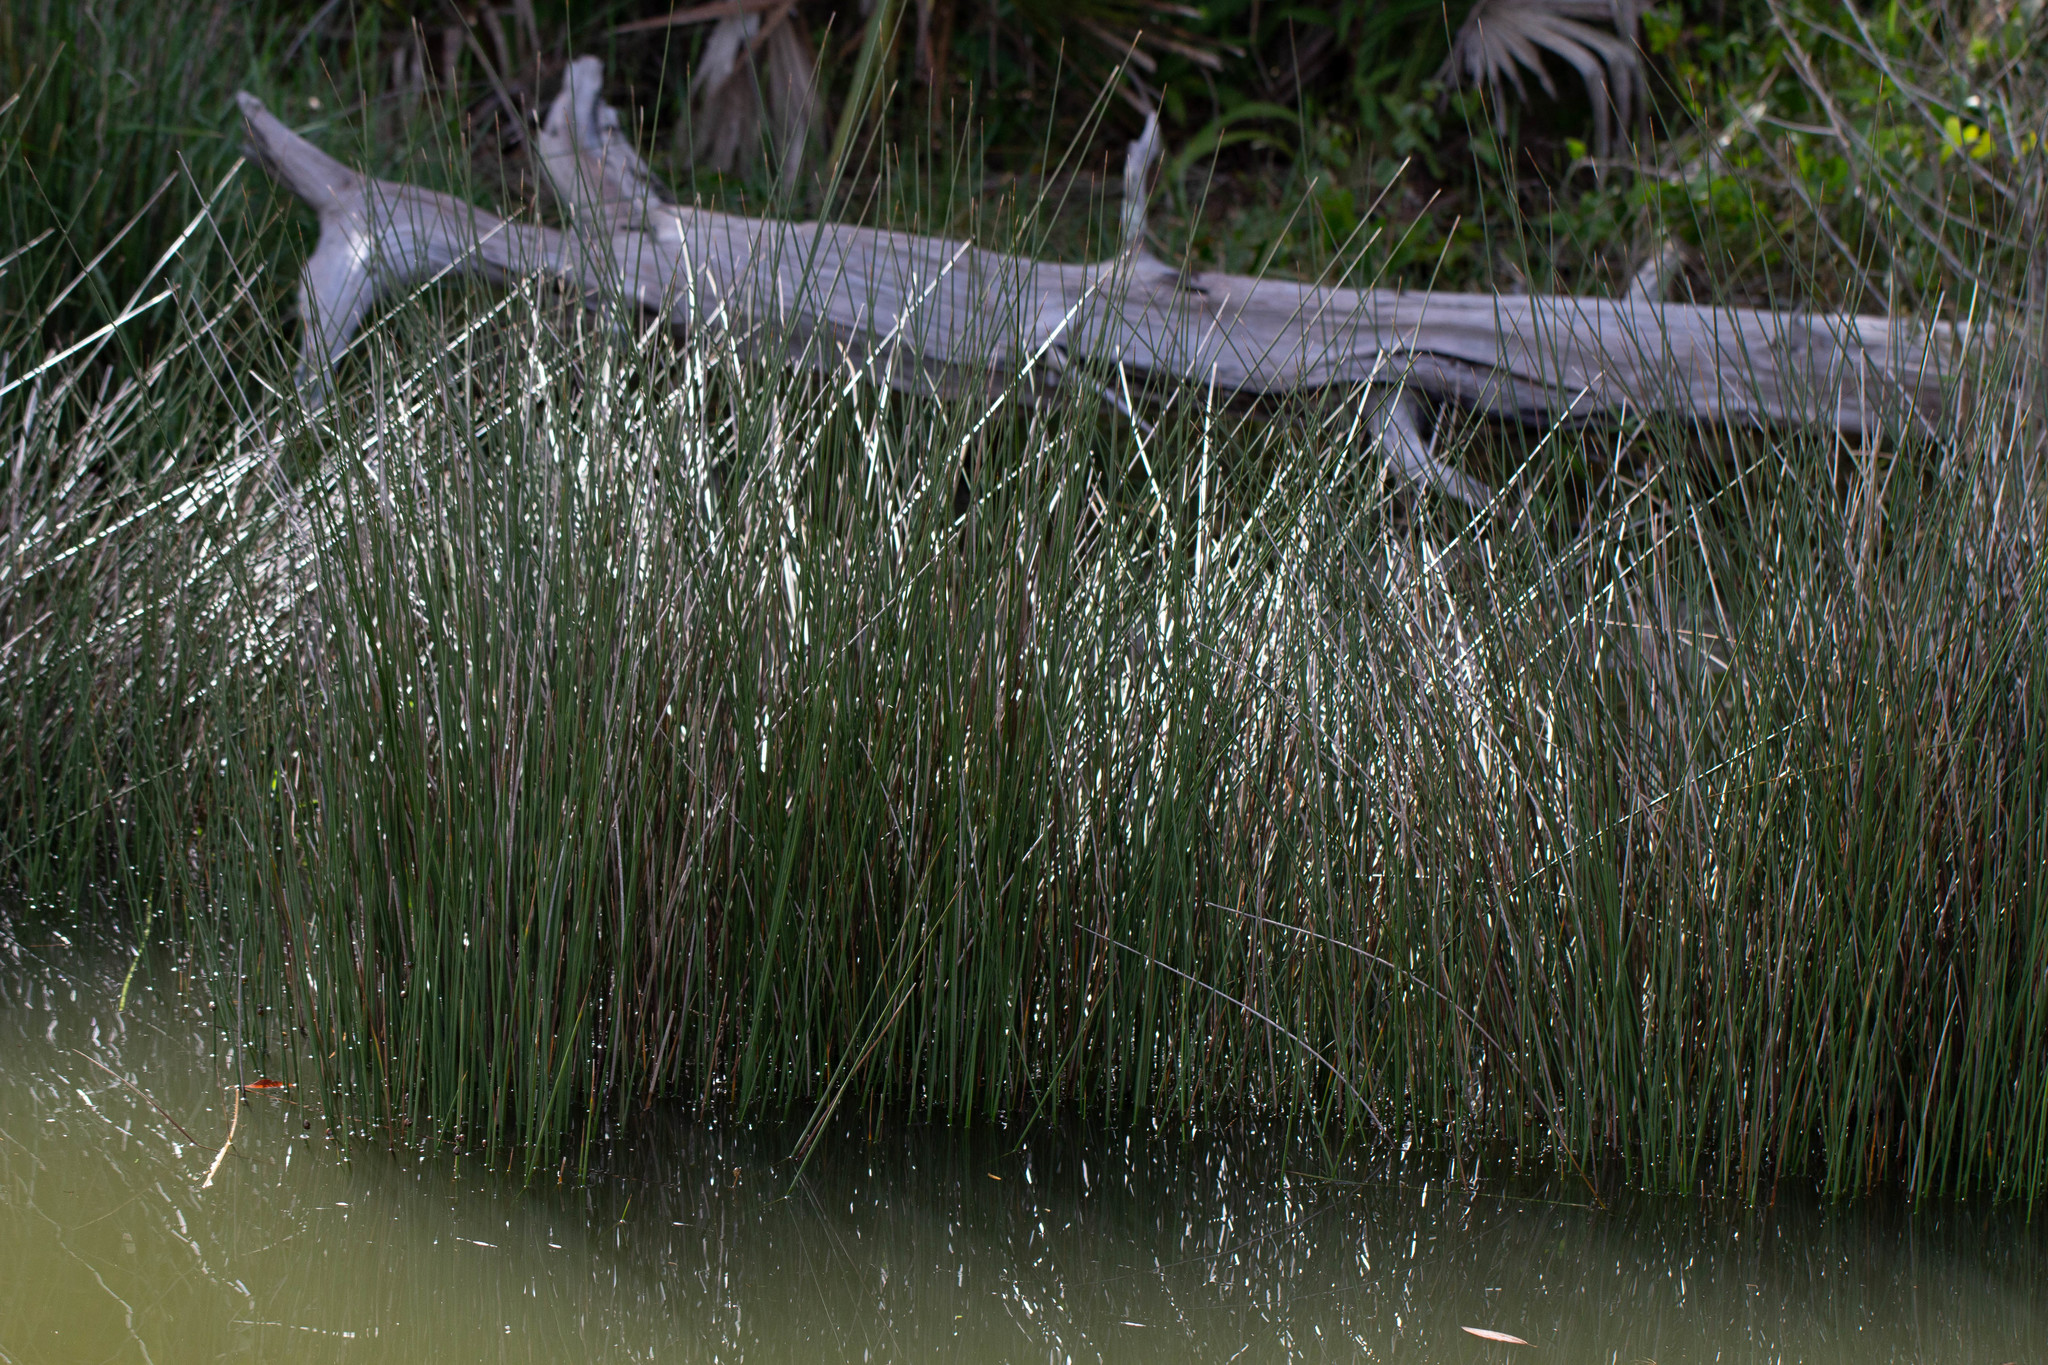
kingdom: Plantae
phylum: Tracheophyta
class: Liliopsida
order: Poales
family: Juncaceae
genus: Juncus
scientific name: Juncus roemerianus
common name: Roemer's rush
